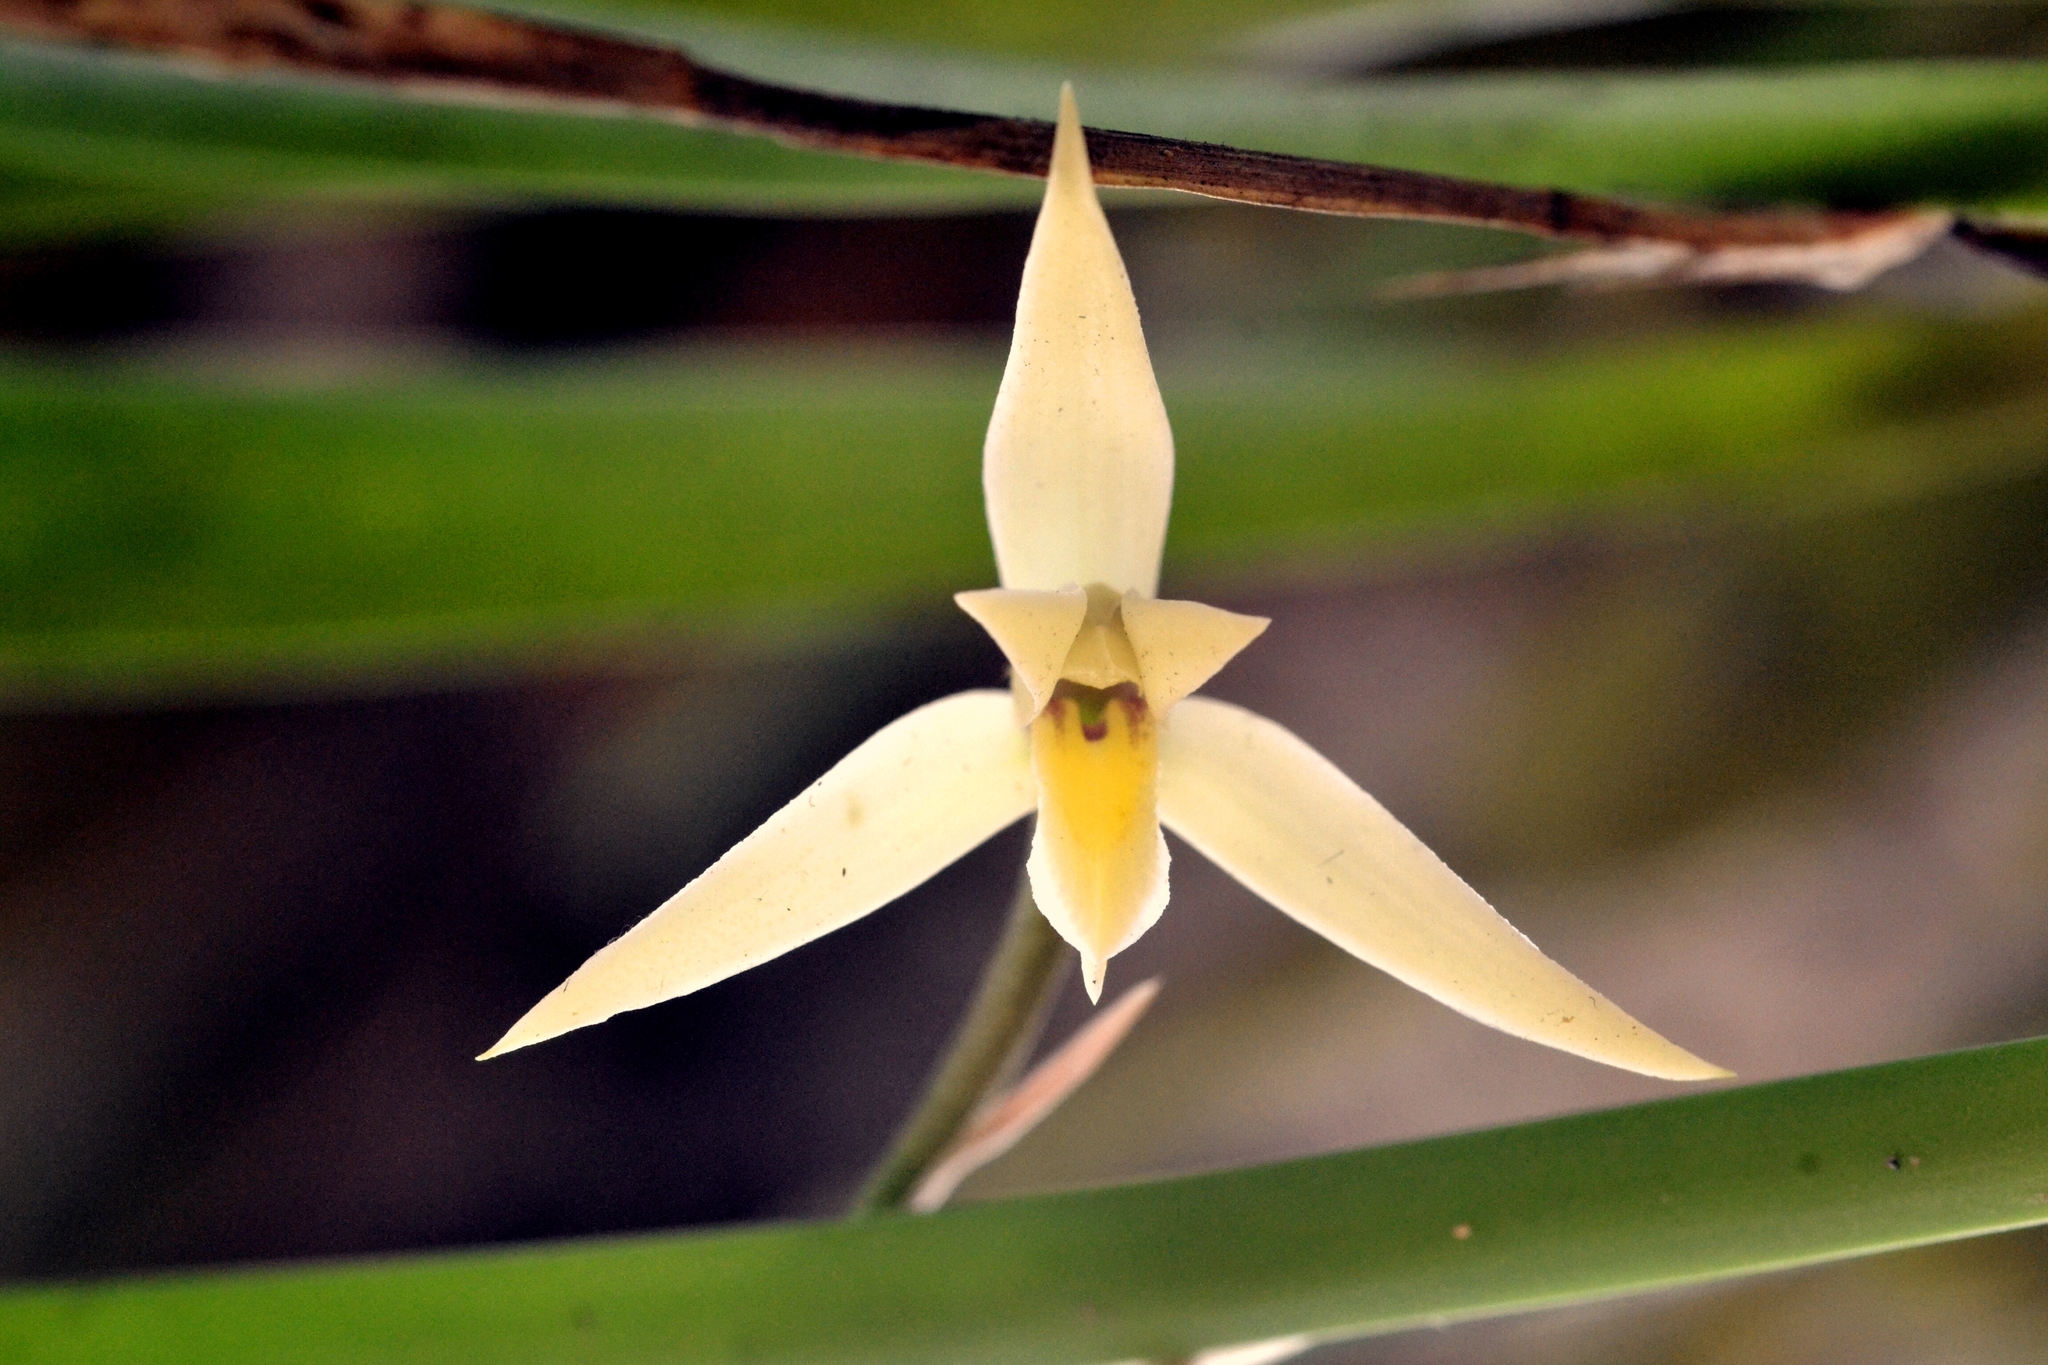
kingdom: Plantae
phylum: Tracheophyta
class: Liliopsida
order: Asparagales
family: Orchidaceae
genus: Nidema
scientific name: Nidema boothii
